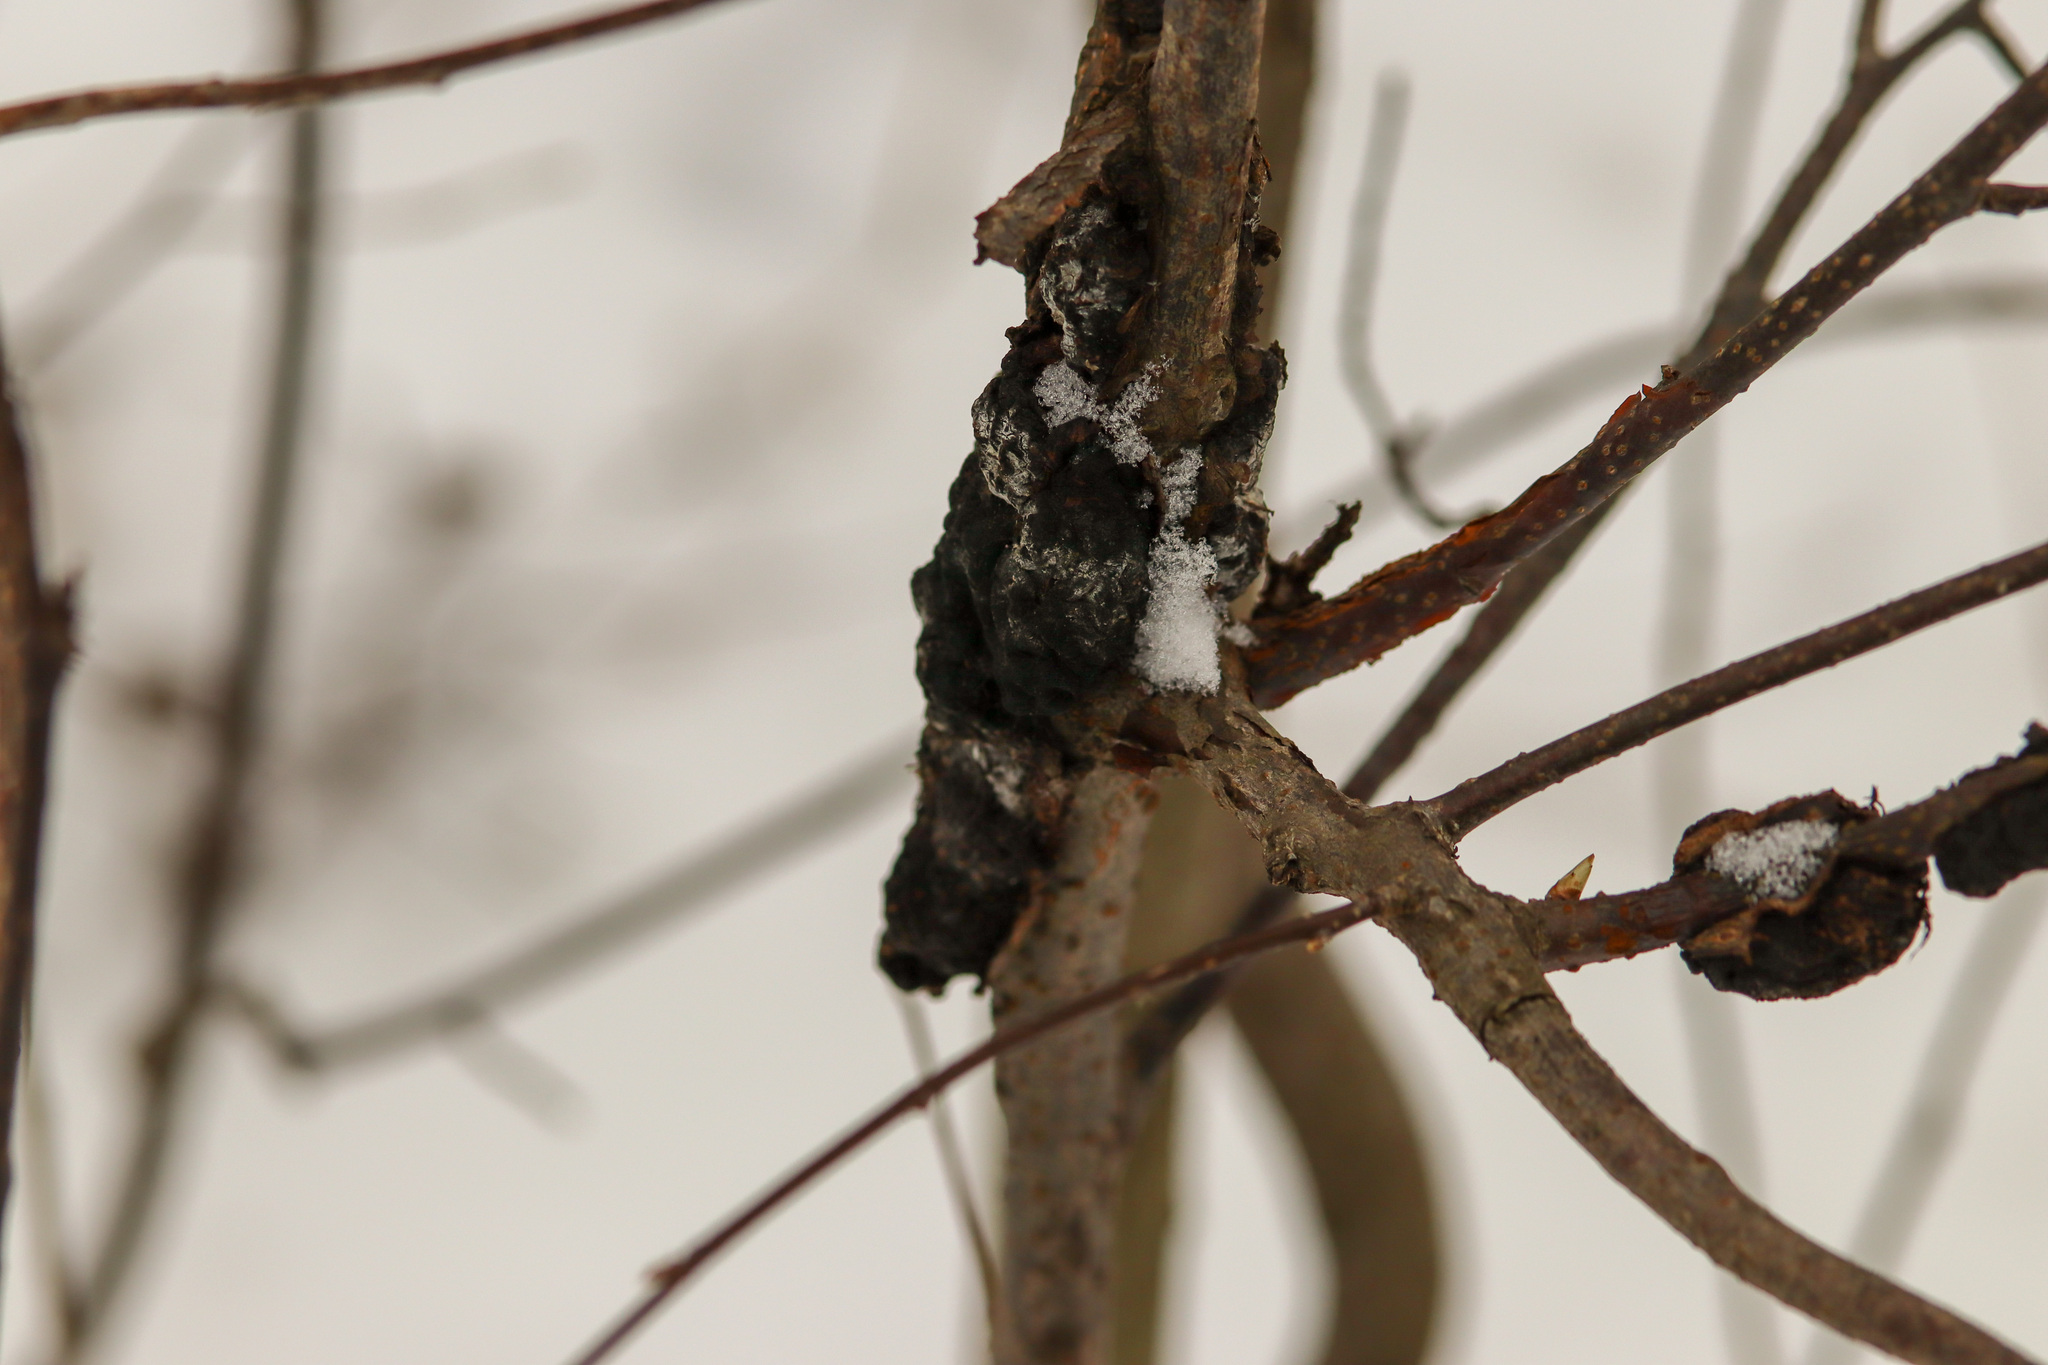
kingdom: Fungi
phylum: Ascomycota
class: Dothideomycetes
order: Venturiales
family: Venturiaceae
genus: Apiosporina
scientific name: Apiosporina morbosa
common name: Black knot
